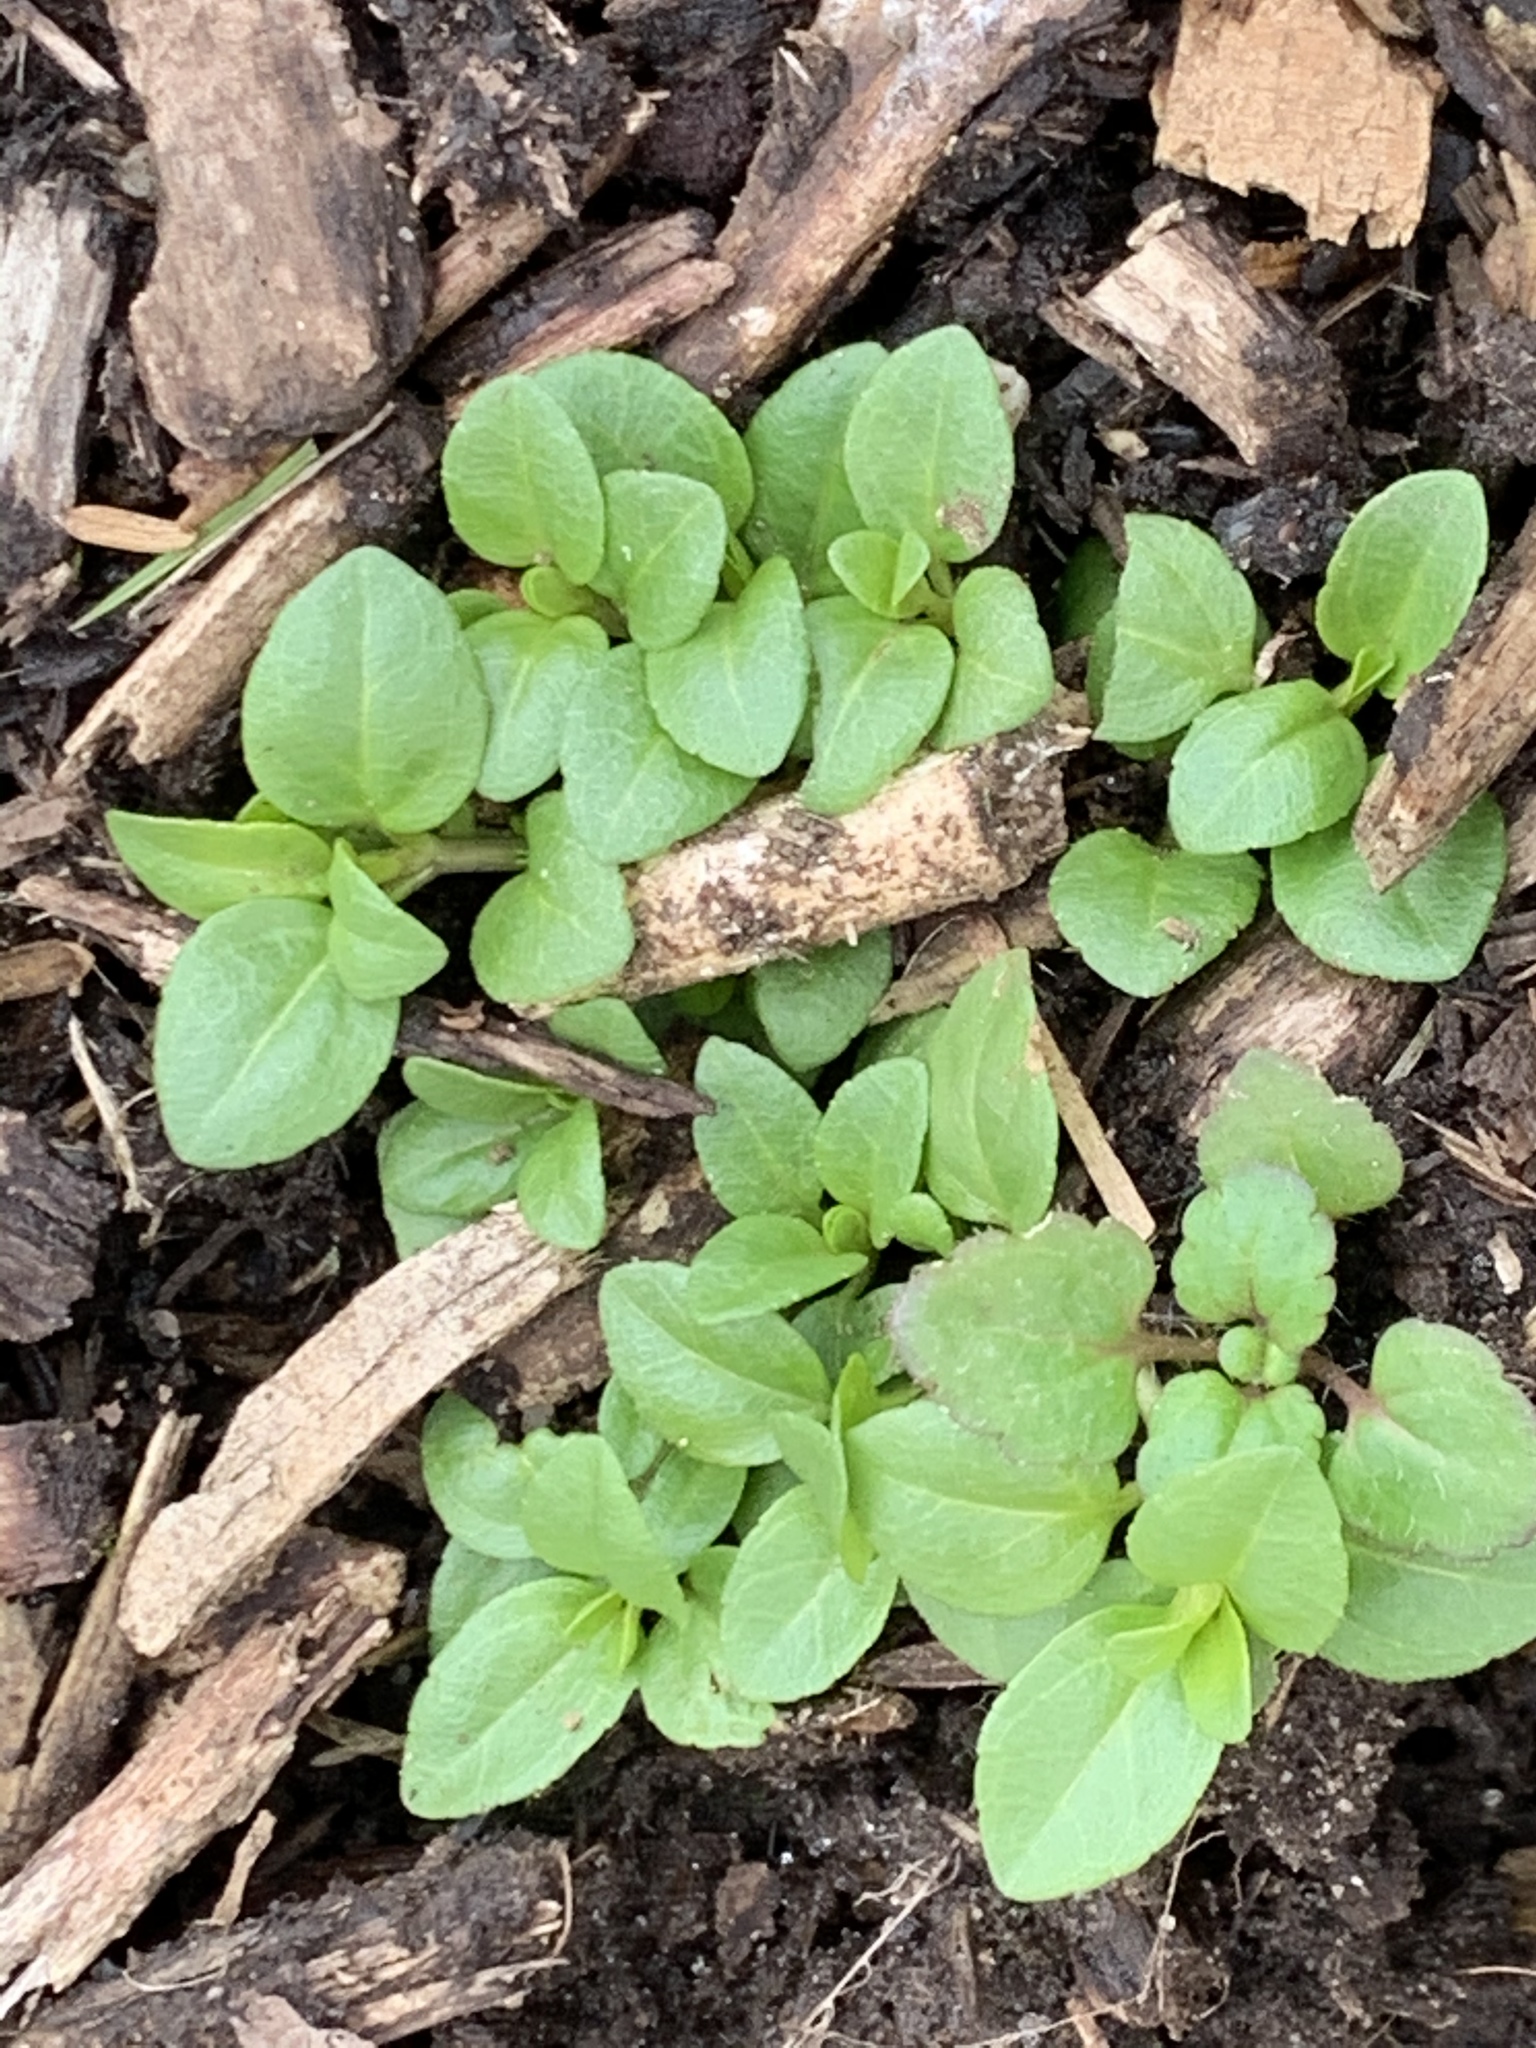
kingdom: Plantae
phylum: Tracheophyta
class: Magnoliopsida
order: Lamiales
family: Plantaginaceae
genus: Veronica
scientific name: Veronica serpyllifolia
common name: Thyme-leaved speedwell
